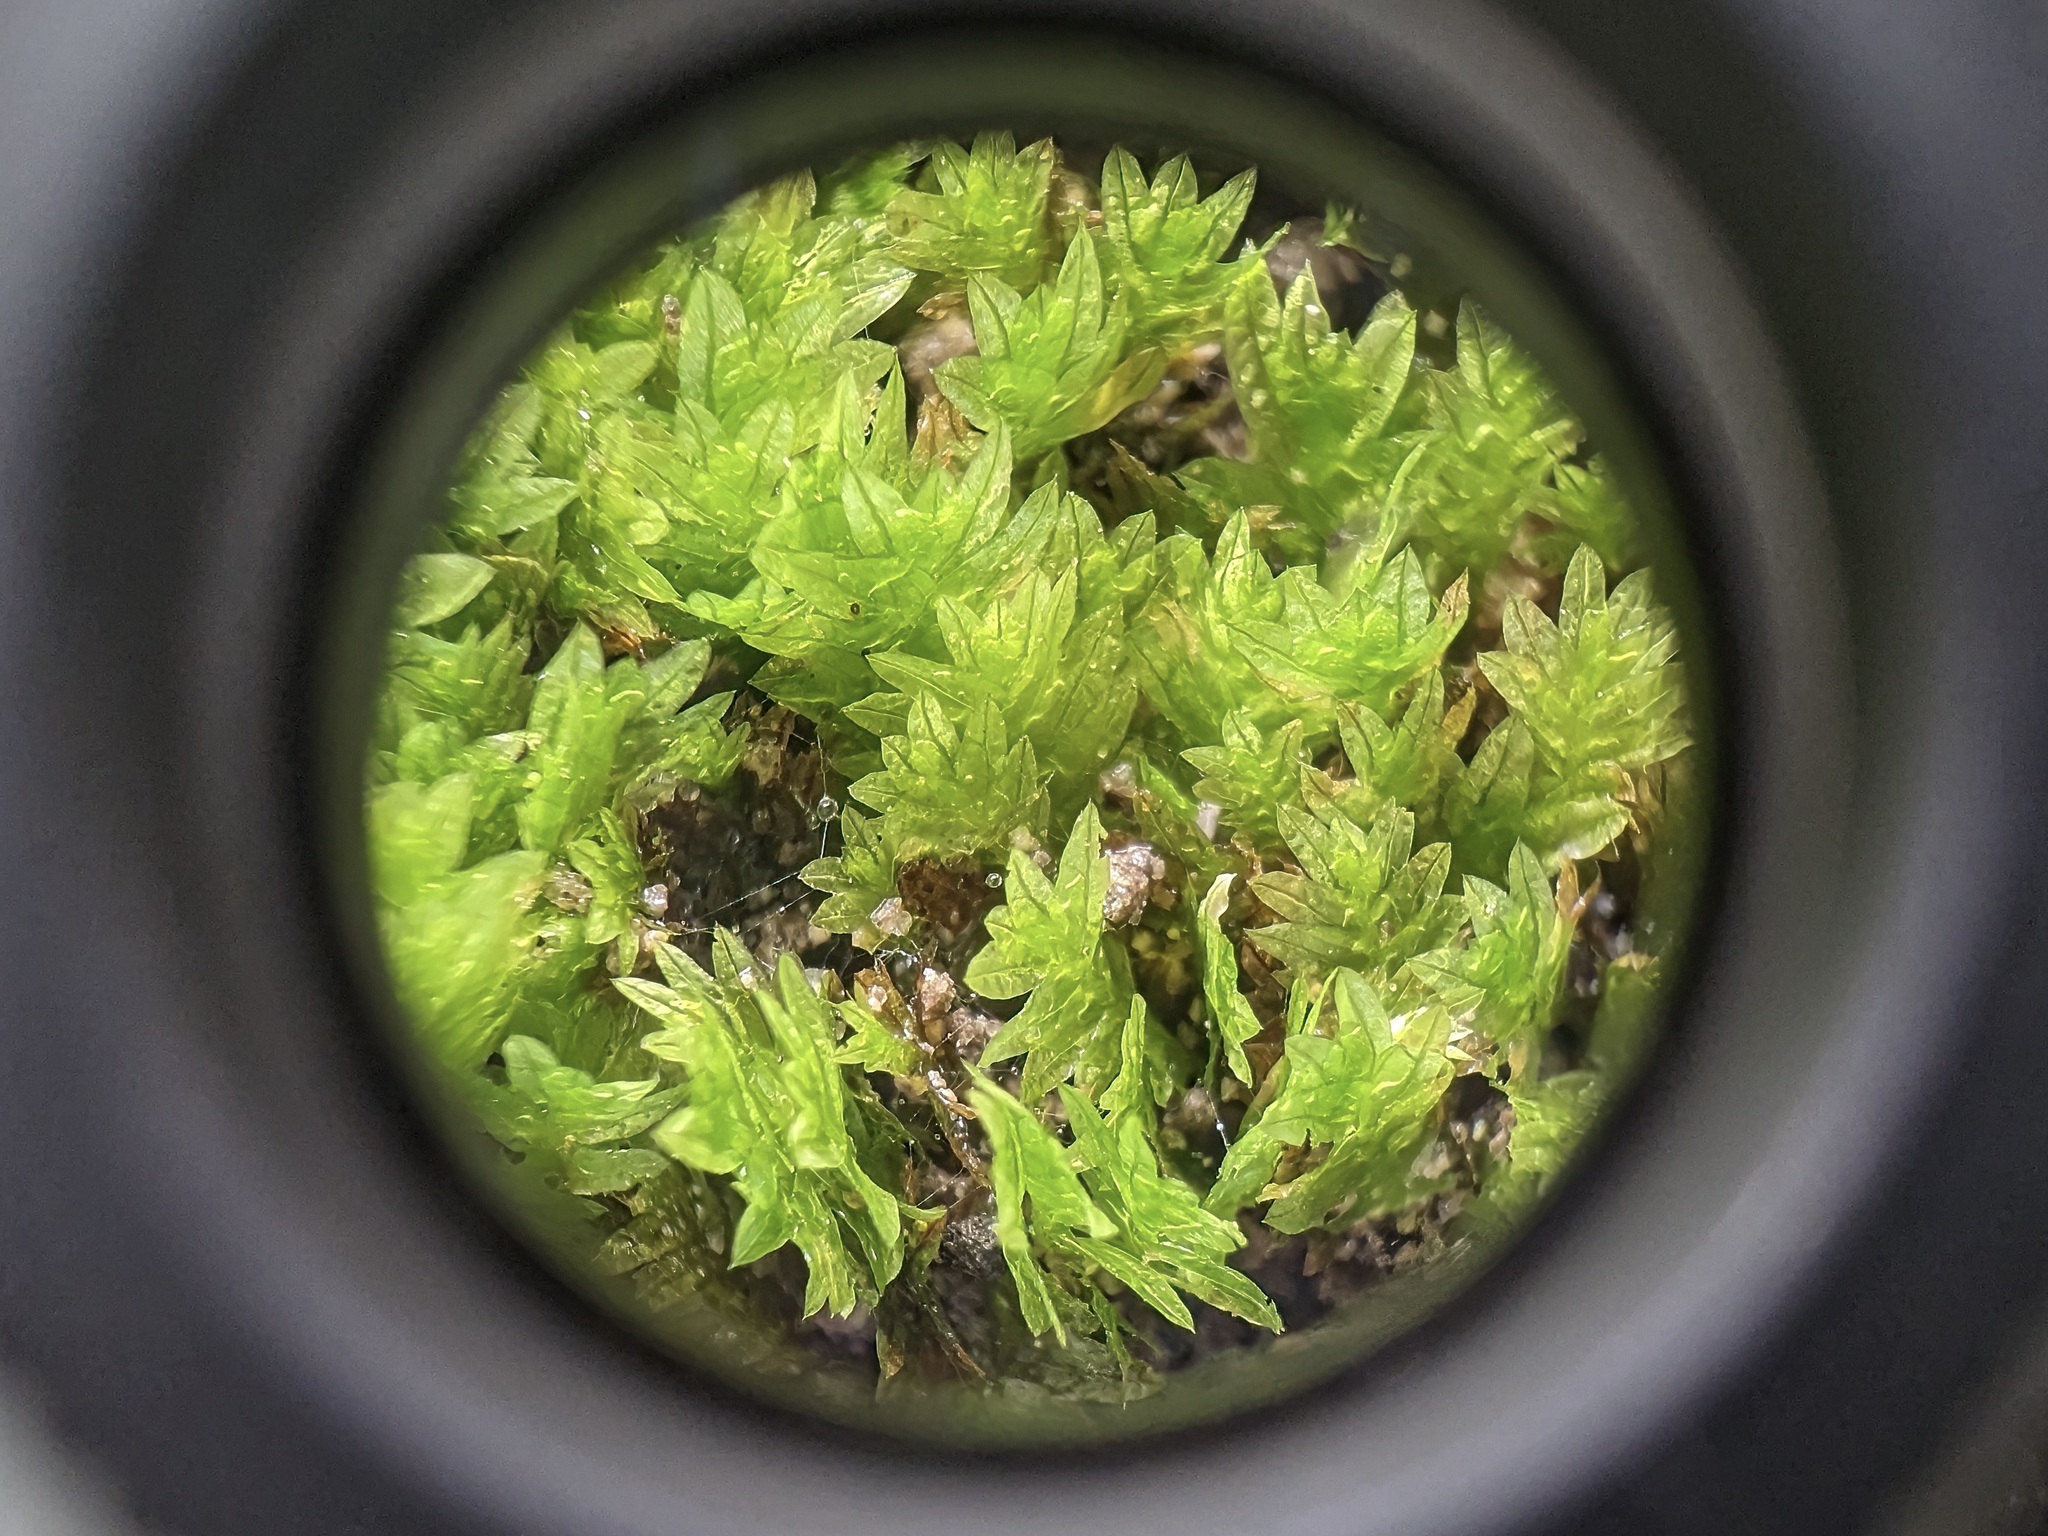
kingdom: Plantae
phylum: Bryophyta
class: Bryopsida
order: Dicranales
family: Fissidentaceae
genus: Fissidens
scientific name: Fissidens taxifolius
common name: Yew-leaved pocket moss
